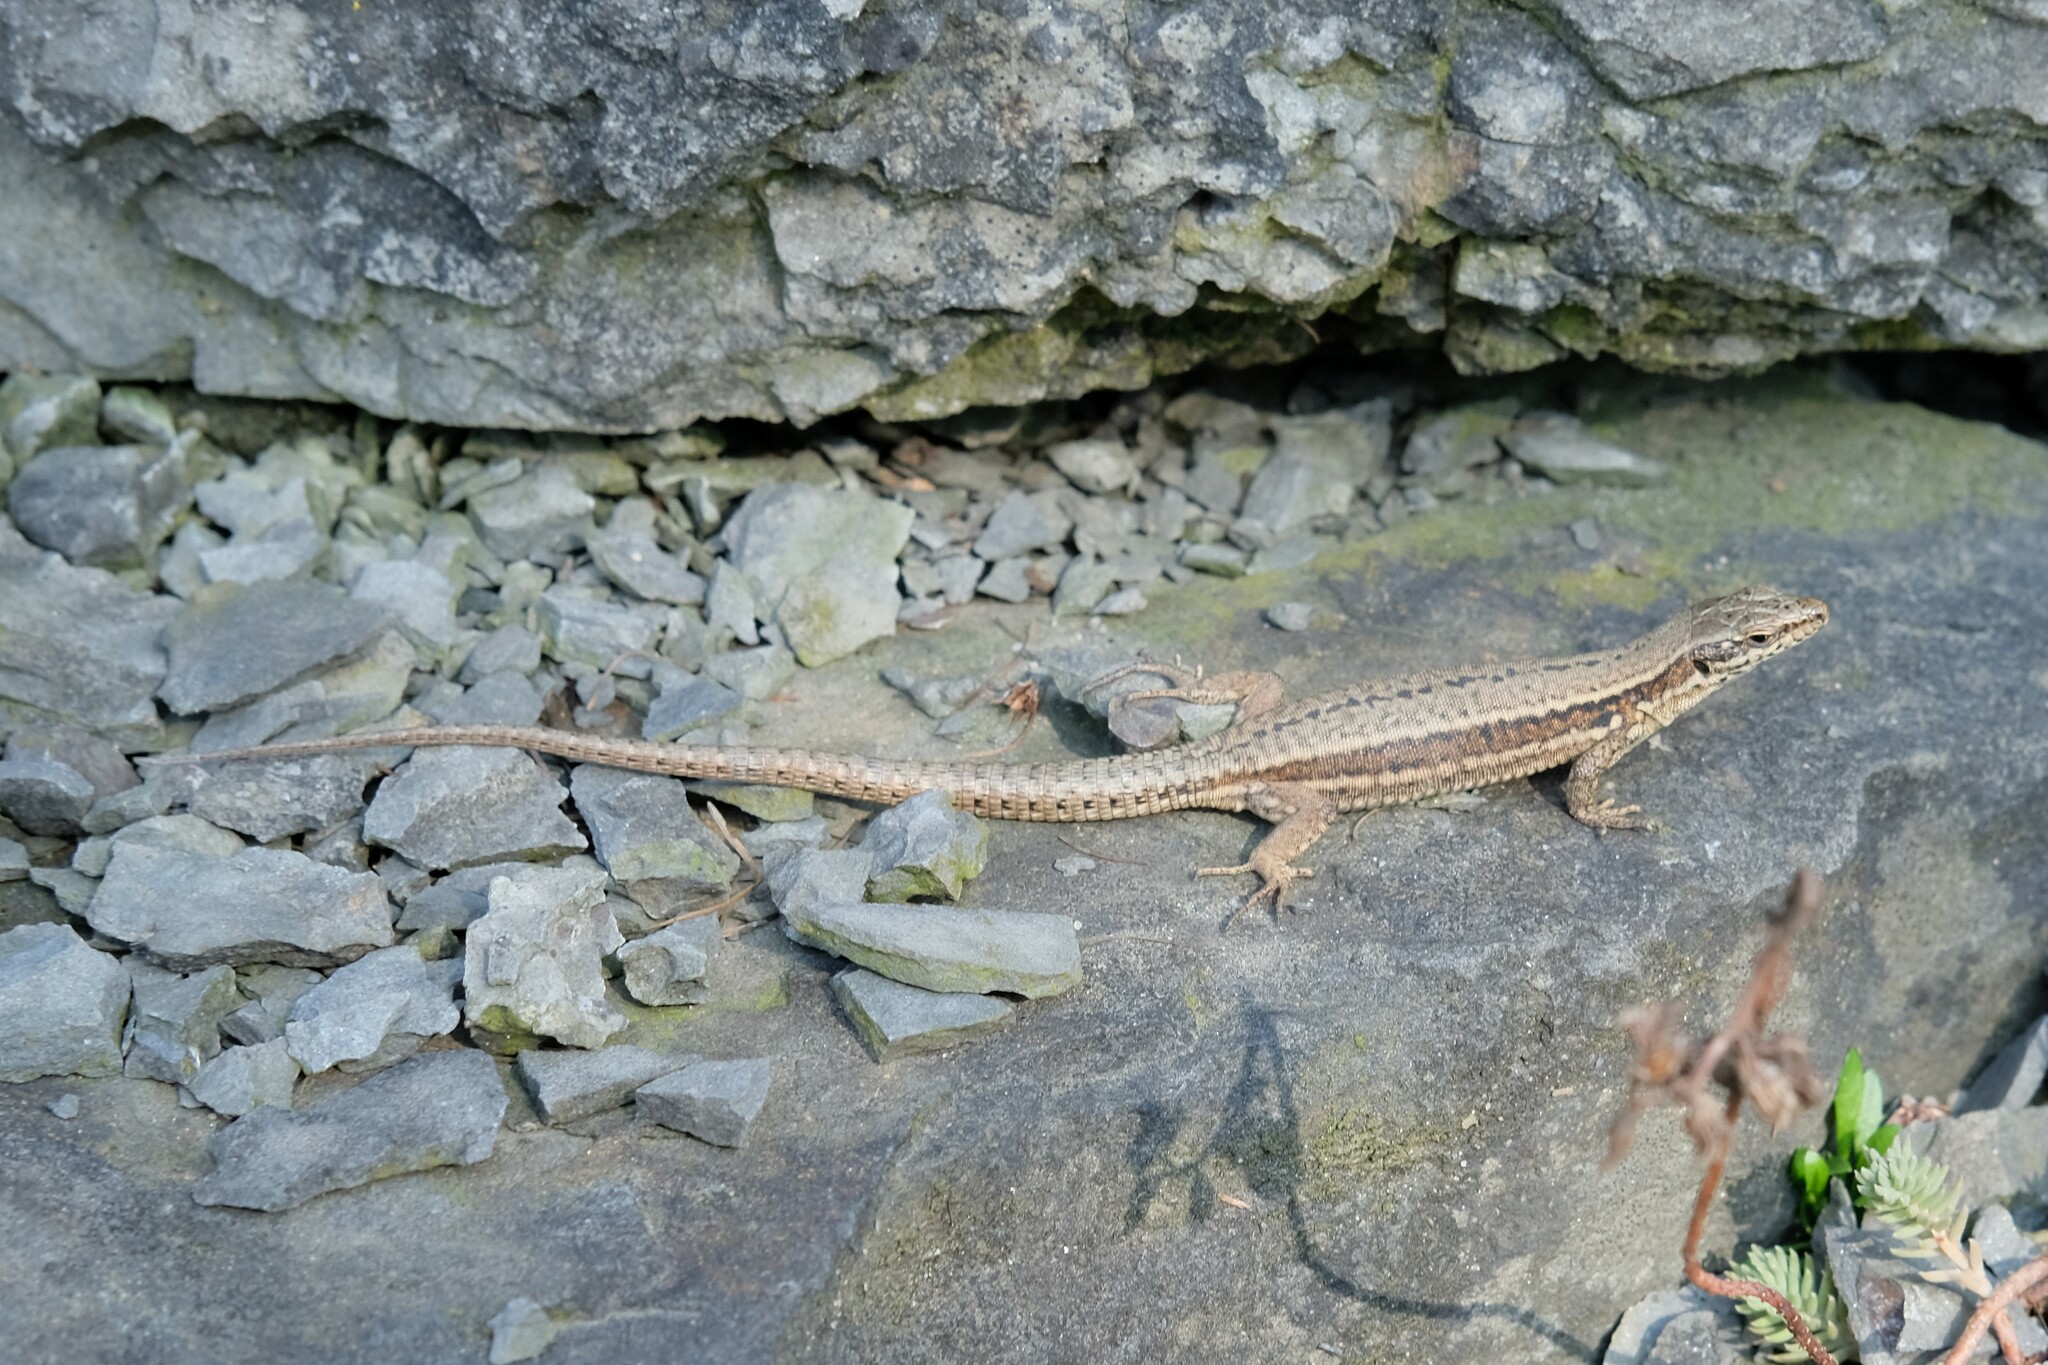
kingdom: Animalia
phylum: Chordata
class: Squamata
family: Lacertidae
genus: Podarcis
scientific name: Podarcis muralis
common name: Common wall lizard
